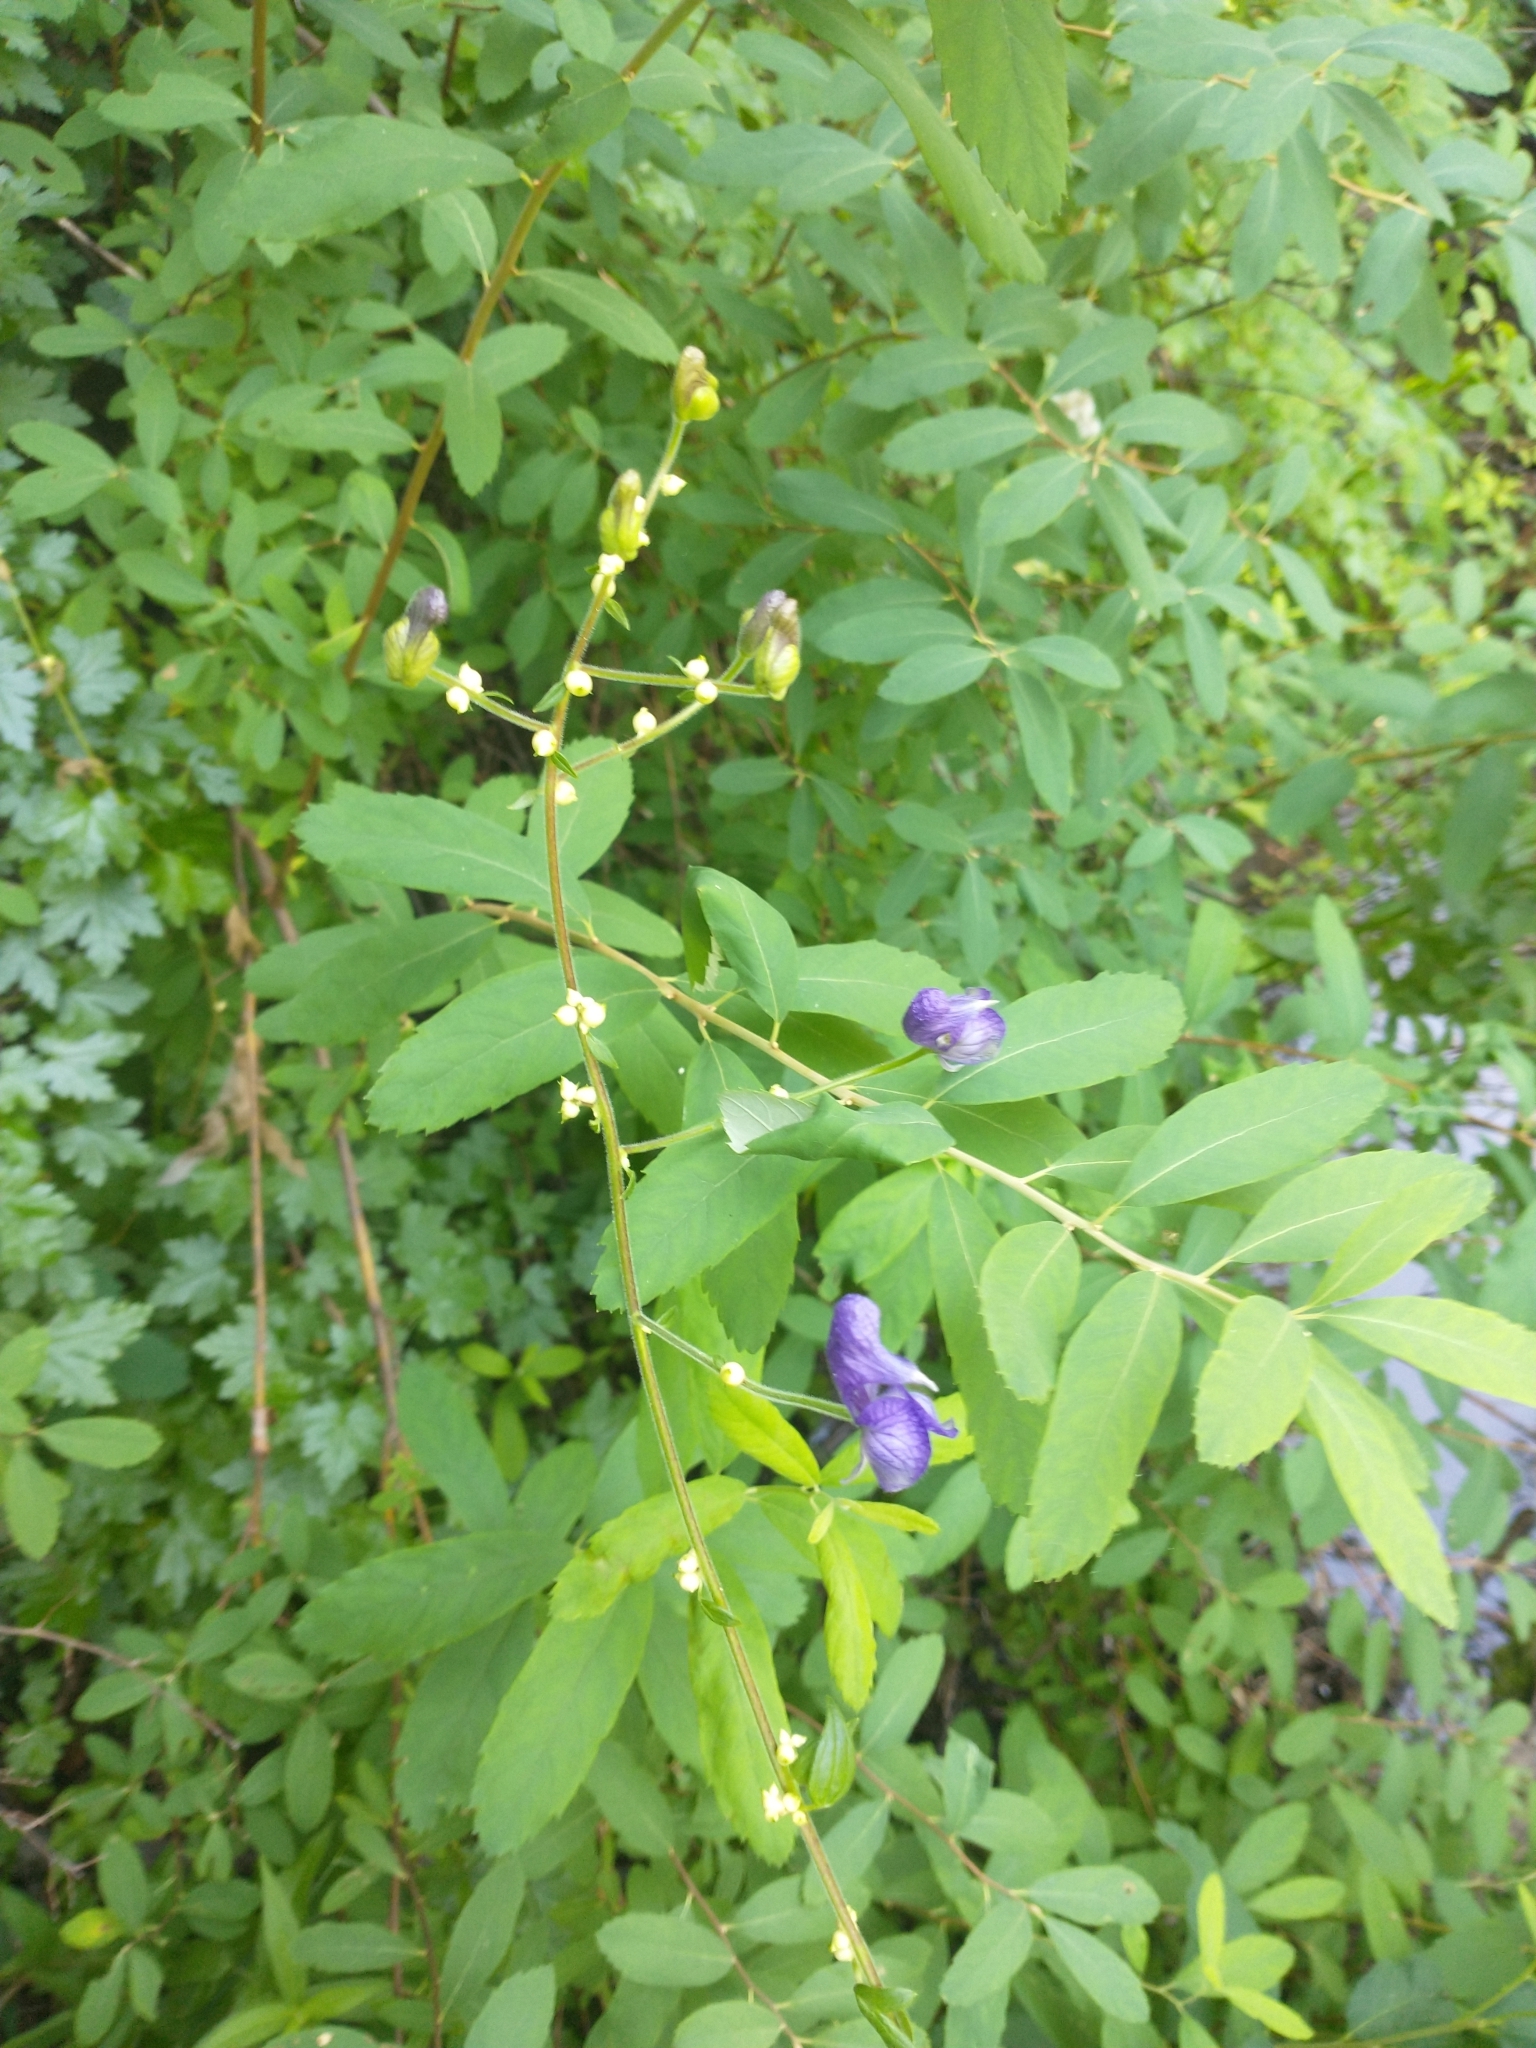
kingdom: Plantae
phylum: Tracheophyta
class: Magnoliopsida
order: Ranunculales
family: Ranunculaceae
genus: Aconitum
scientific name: Aconitum columbianum
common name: Columbia aconite
